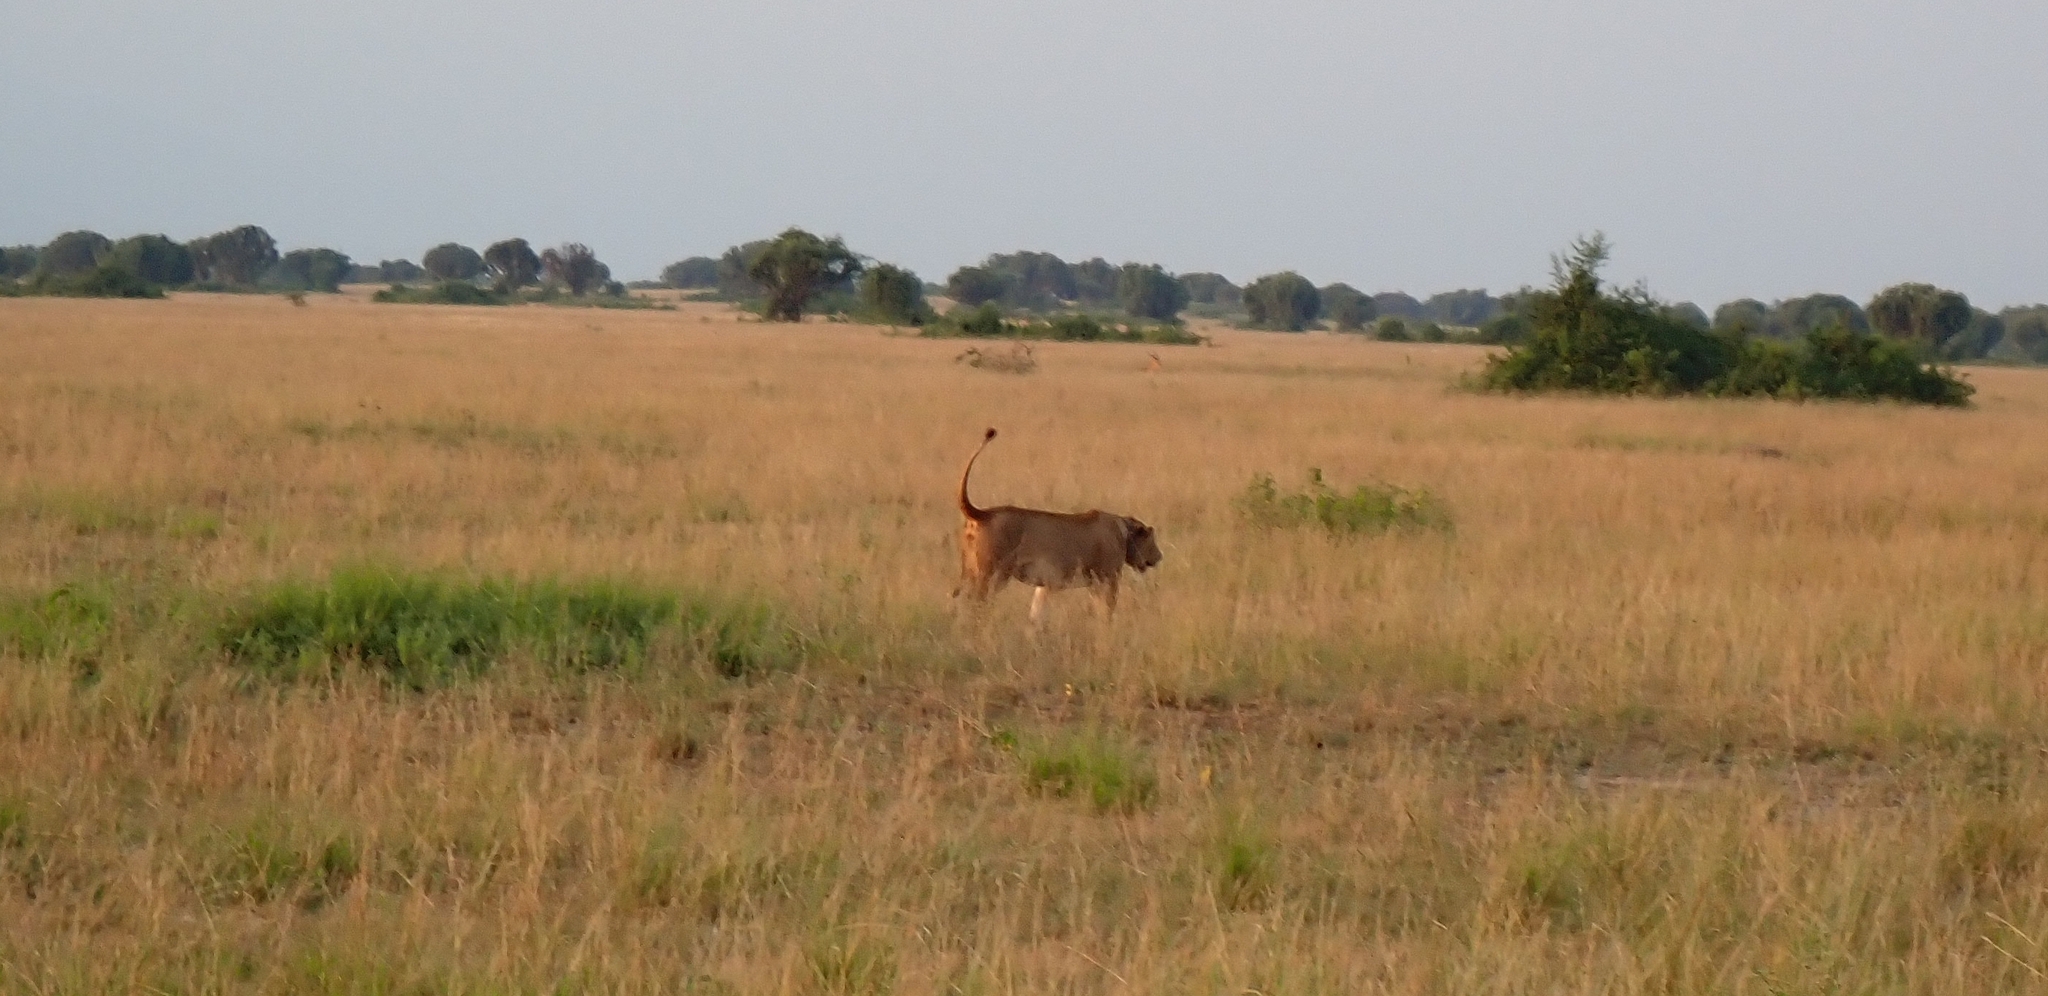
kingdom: Animalia
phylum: Chordata
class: Mammalia
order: Carnivora
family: Felidae
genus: Panthera
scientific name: Panthera leo
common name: Lion
